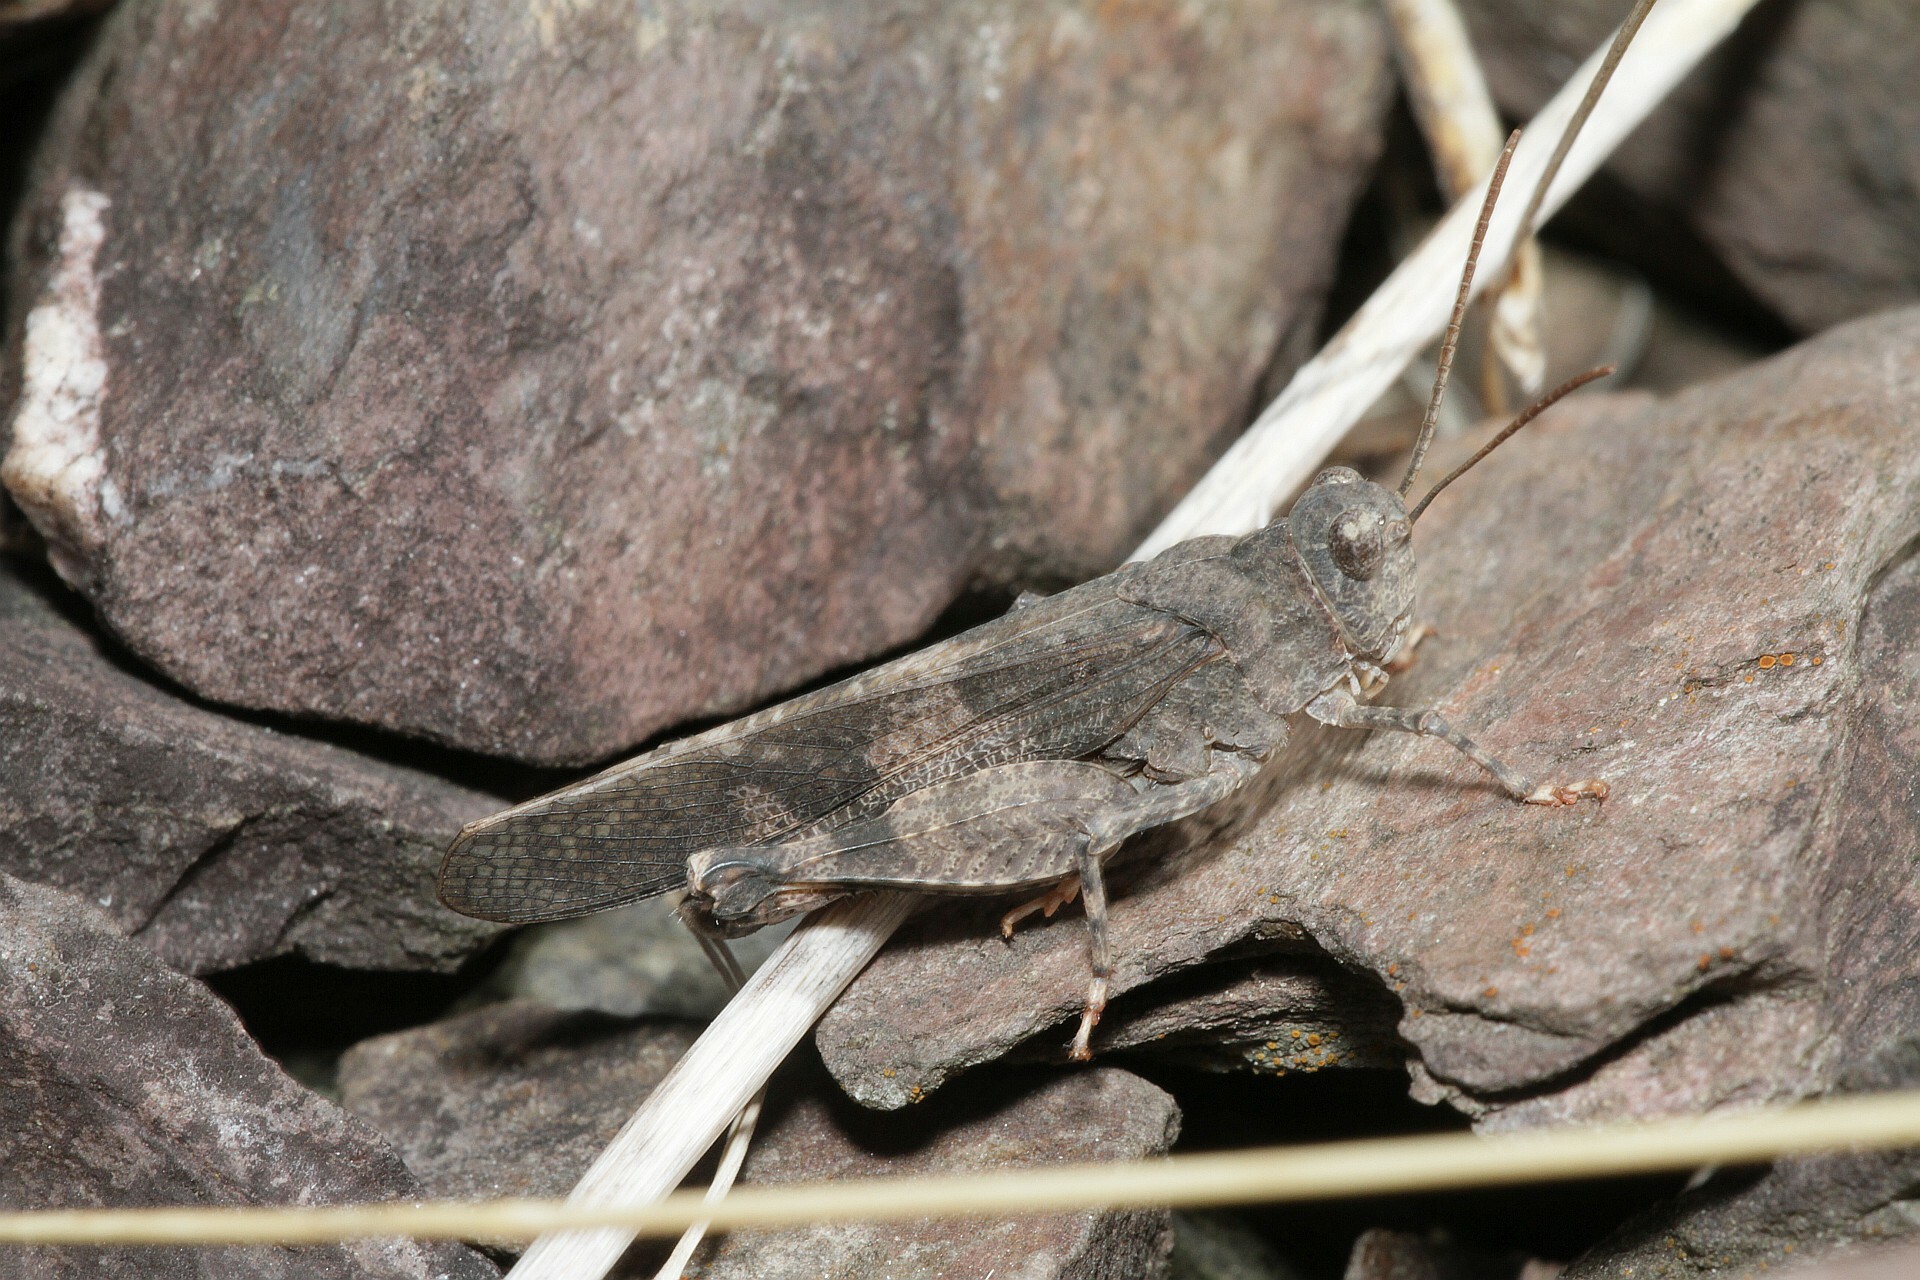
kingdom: Animalia
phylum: Arthropoda
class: Insecta
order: Orthoptera
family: Acrididae
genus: Oedipoda
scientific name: Oedipoda germanica
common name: Red band-winged grasshopper
